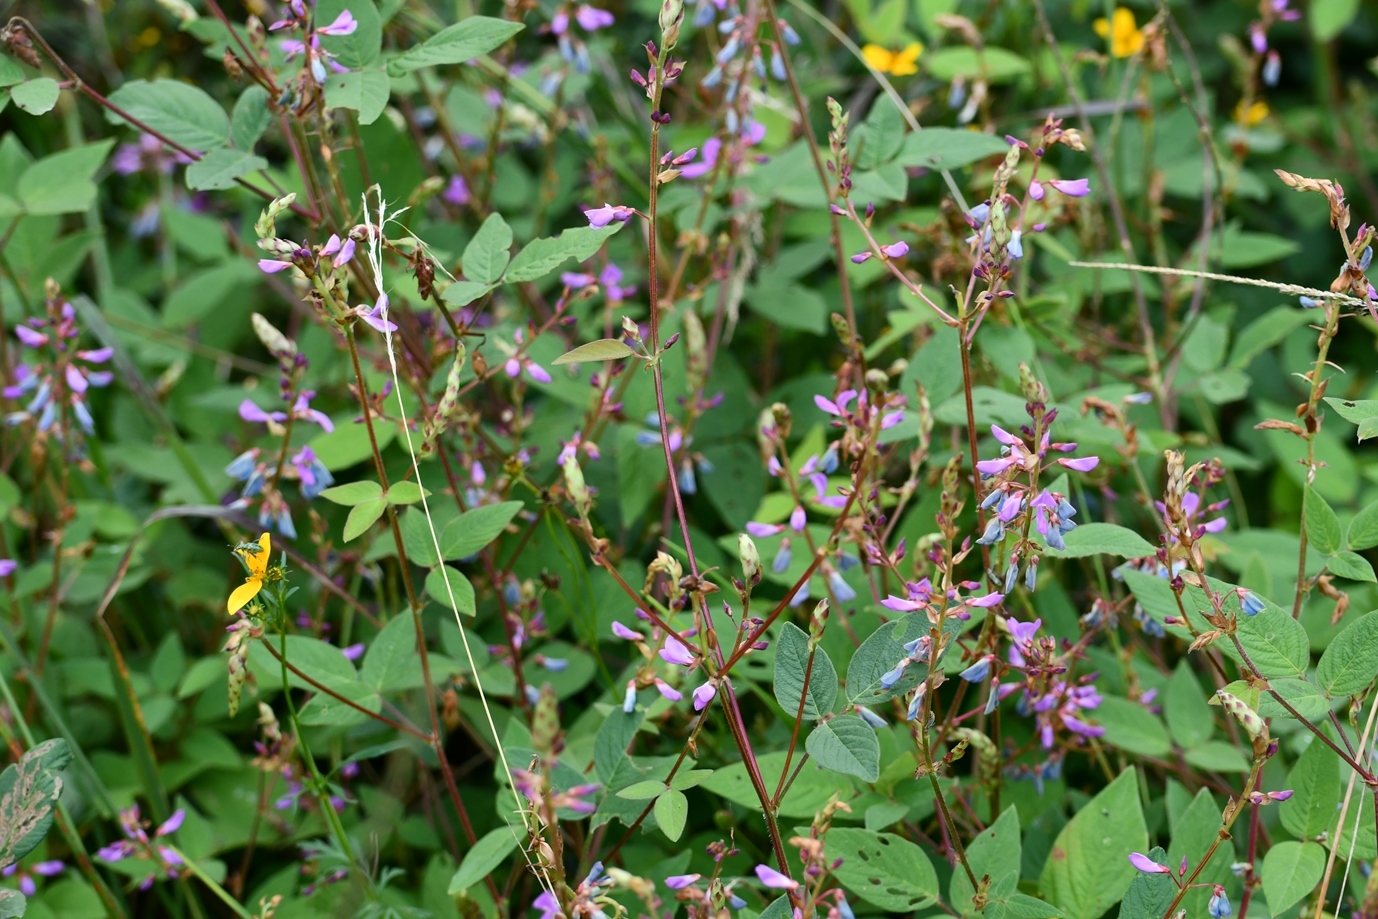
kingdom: Plantae
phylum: Tracheophyta
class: Magnoliopsida
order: Fabales
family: Fabaceae
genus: Desmodium
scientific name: Desmodium pringlei
